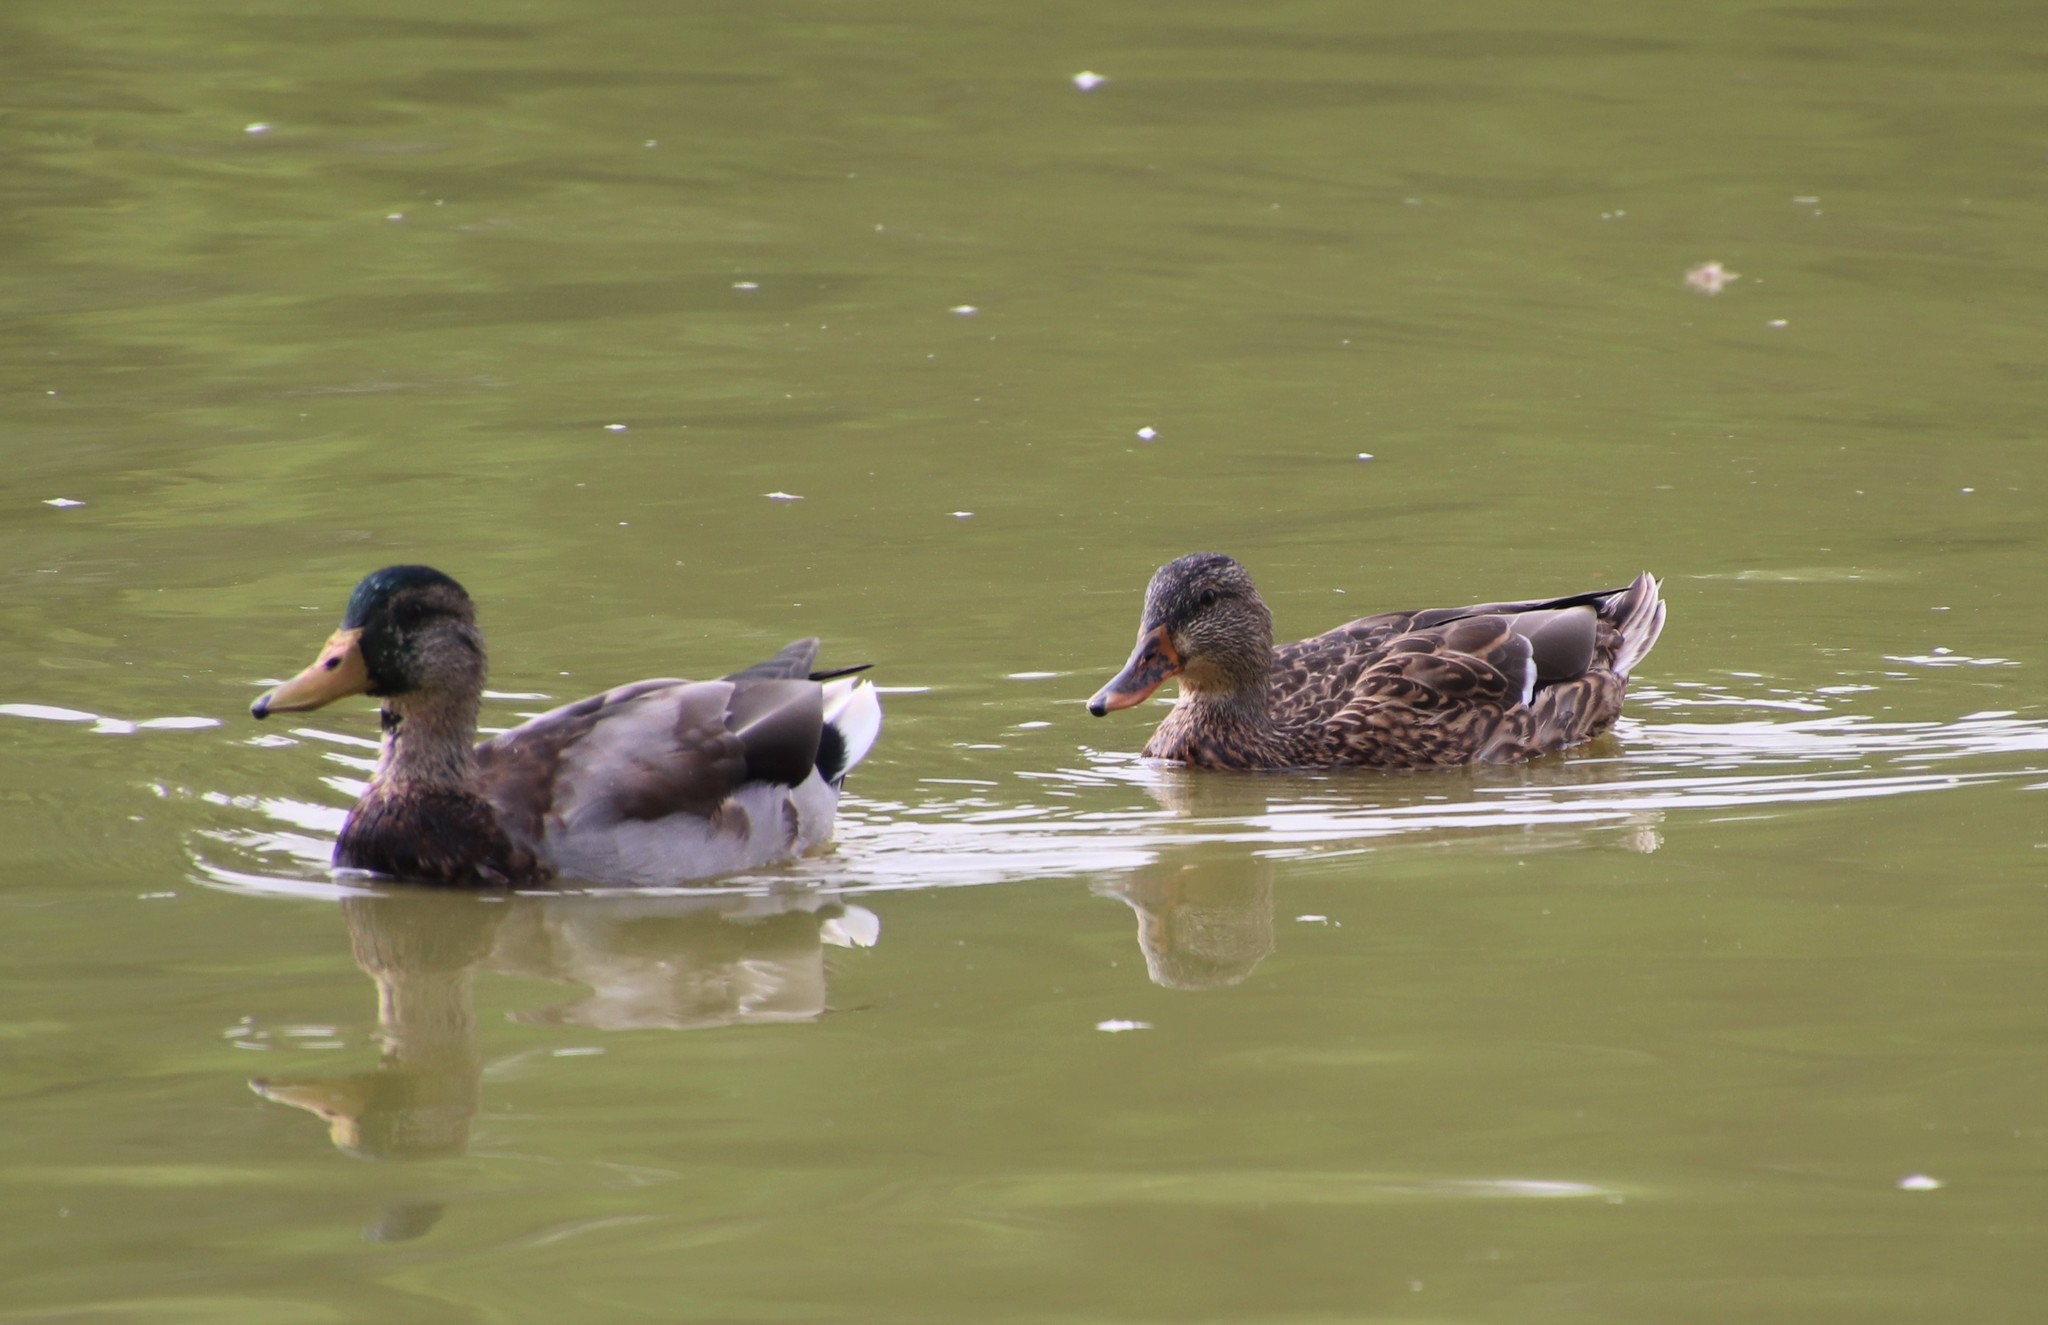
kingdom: Animalia
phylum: Chordata
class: Aves
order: Anseriformes
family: Anatidae
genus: Anas
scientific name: Anas platyrhynchos
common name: Mallard
